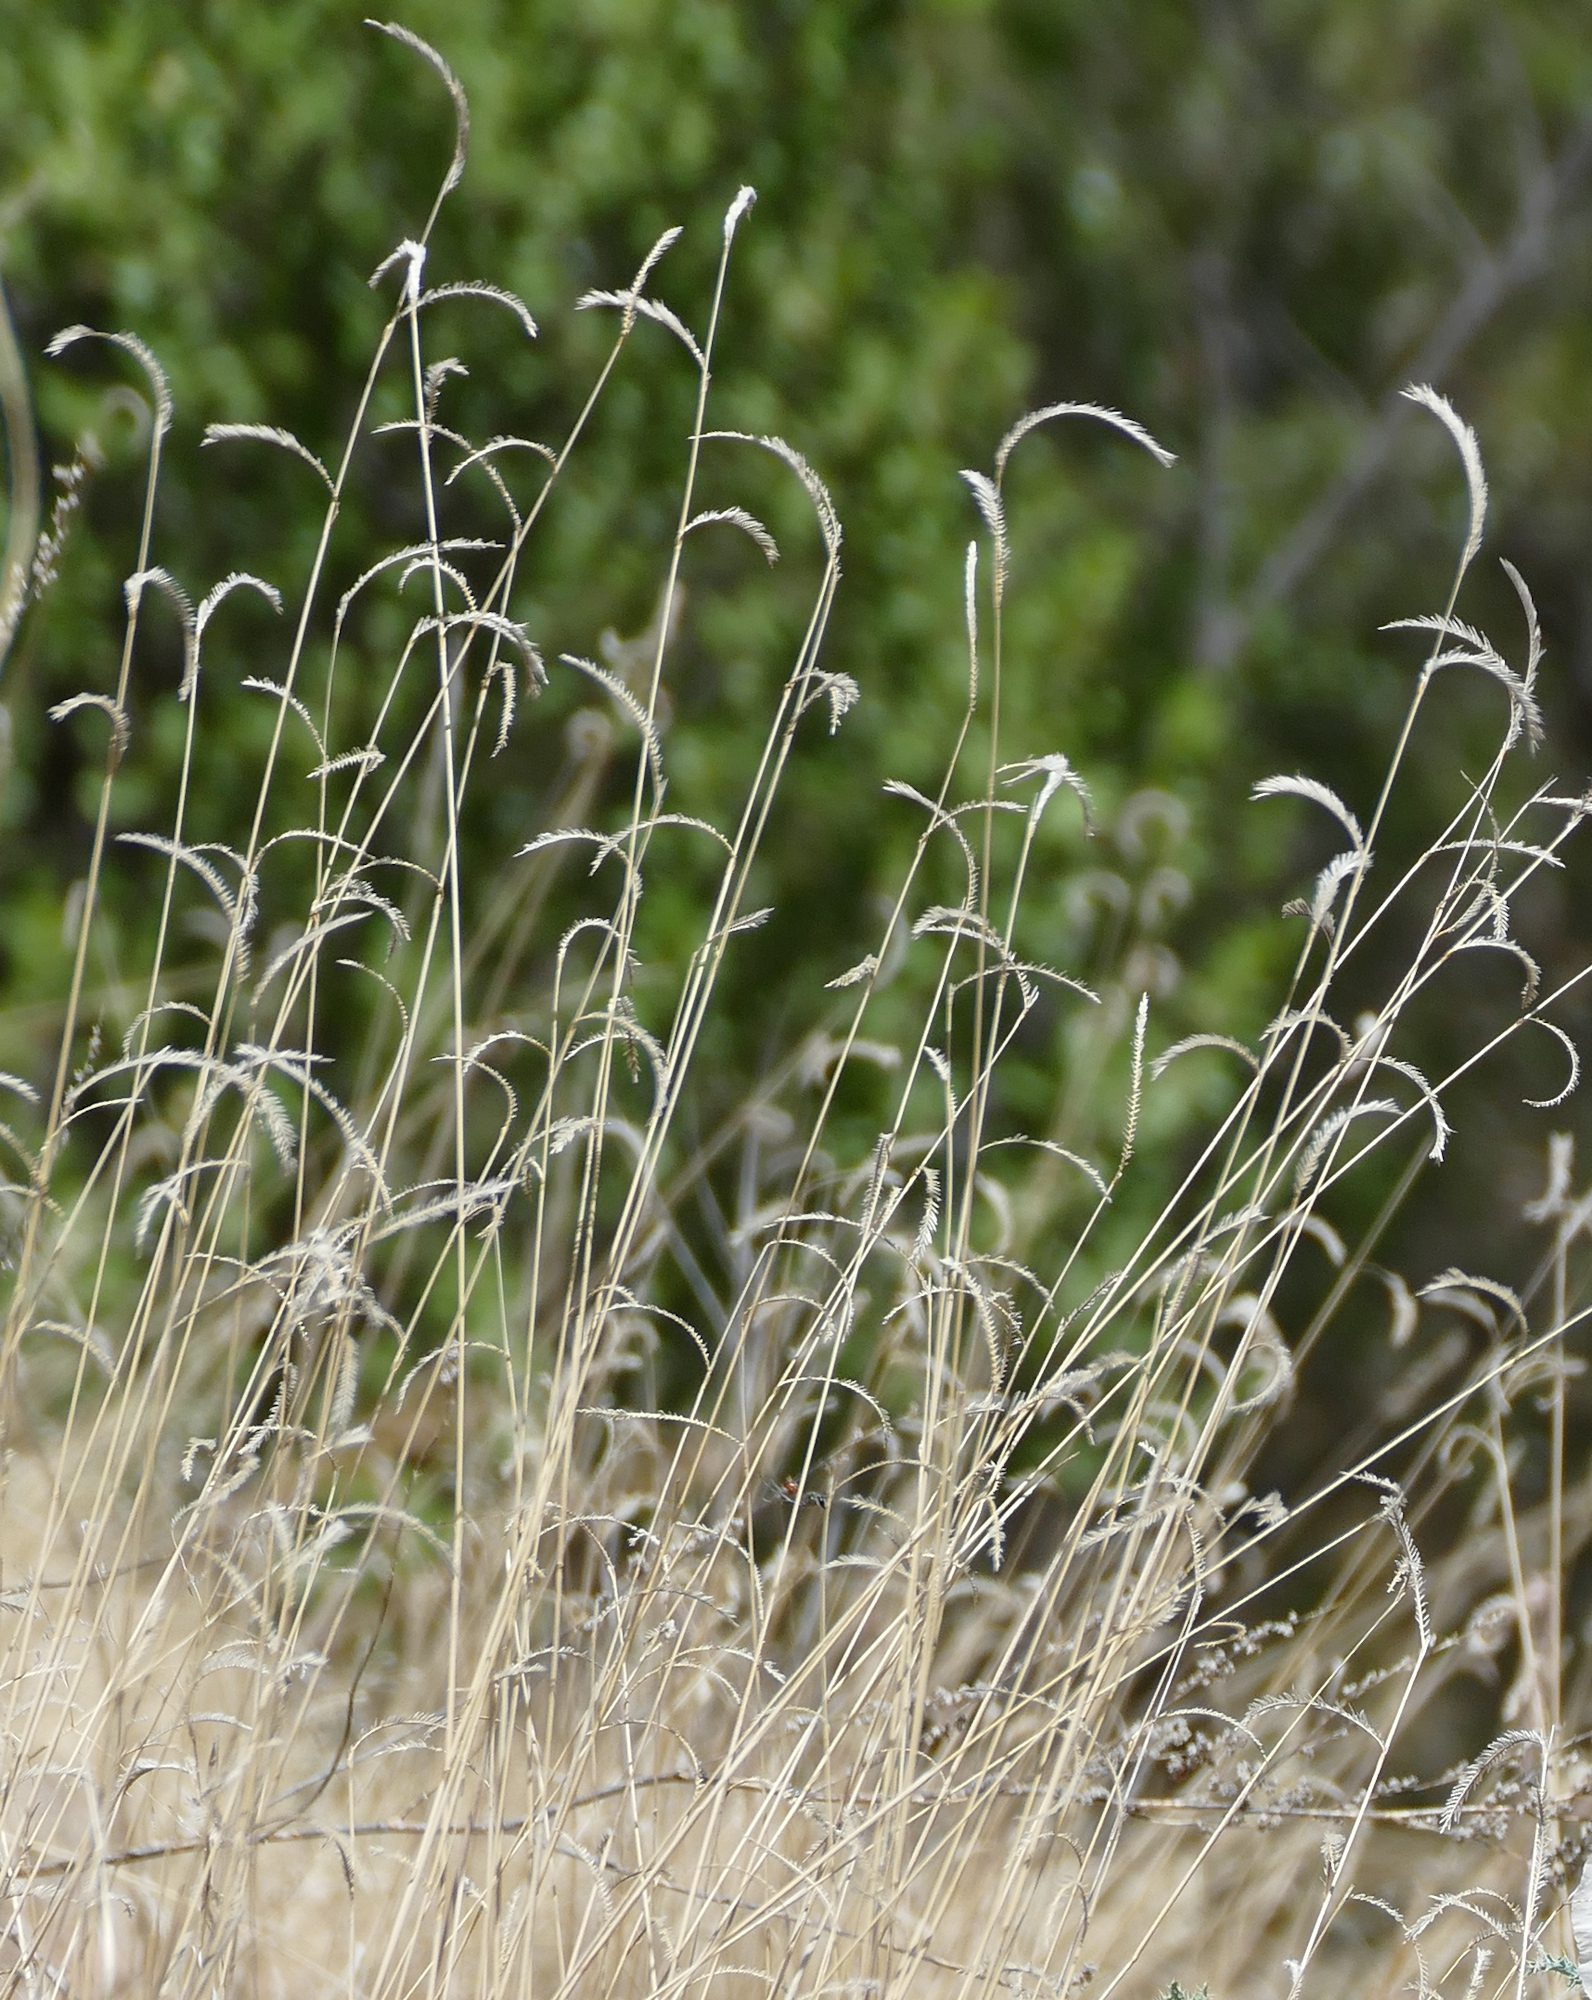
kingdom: Plantae
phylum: Tracheophyta
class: Liliopsida
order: Poales
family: Poaceae
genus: Bouteloua
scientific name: Bouteloua gracilis
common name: Blue grama
